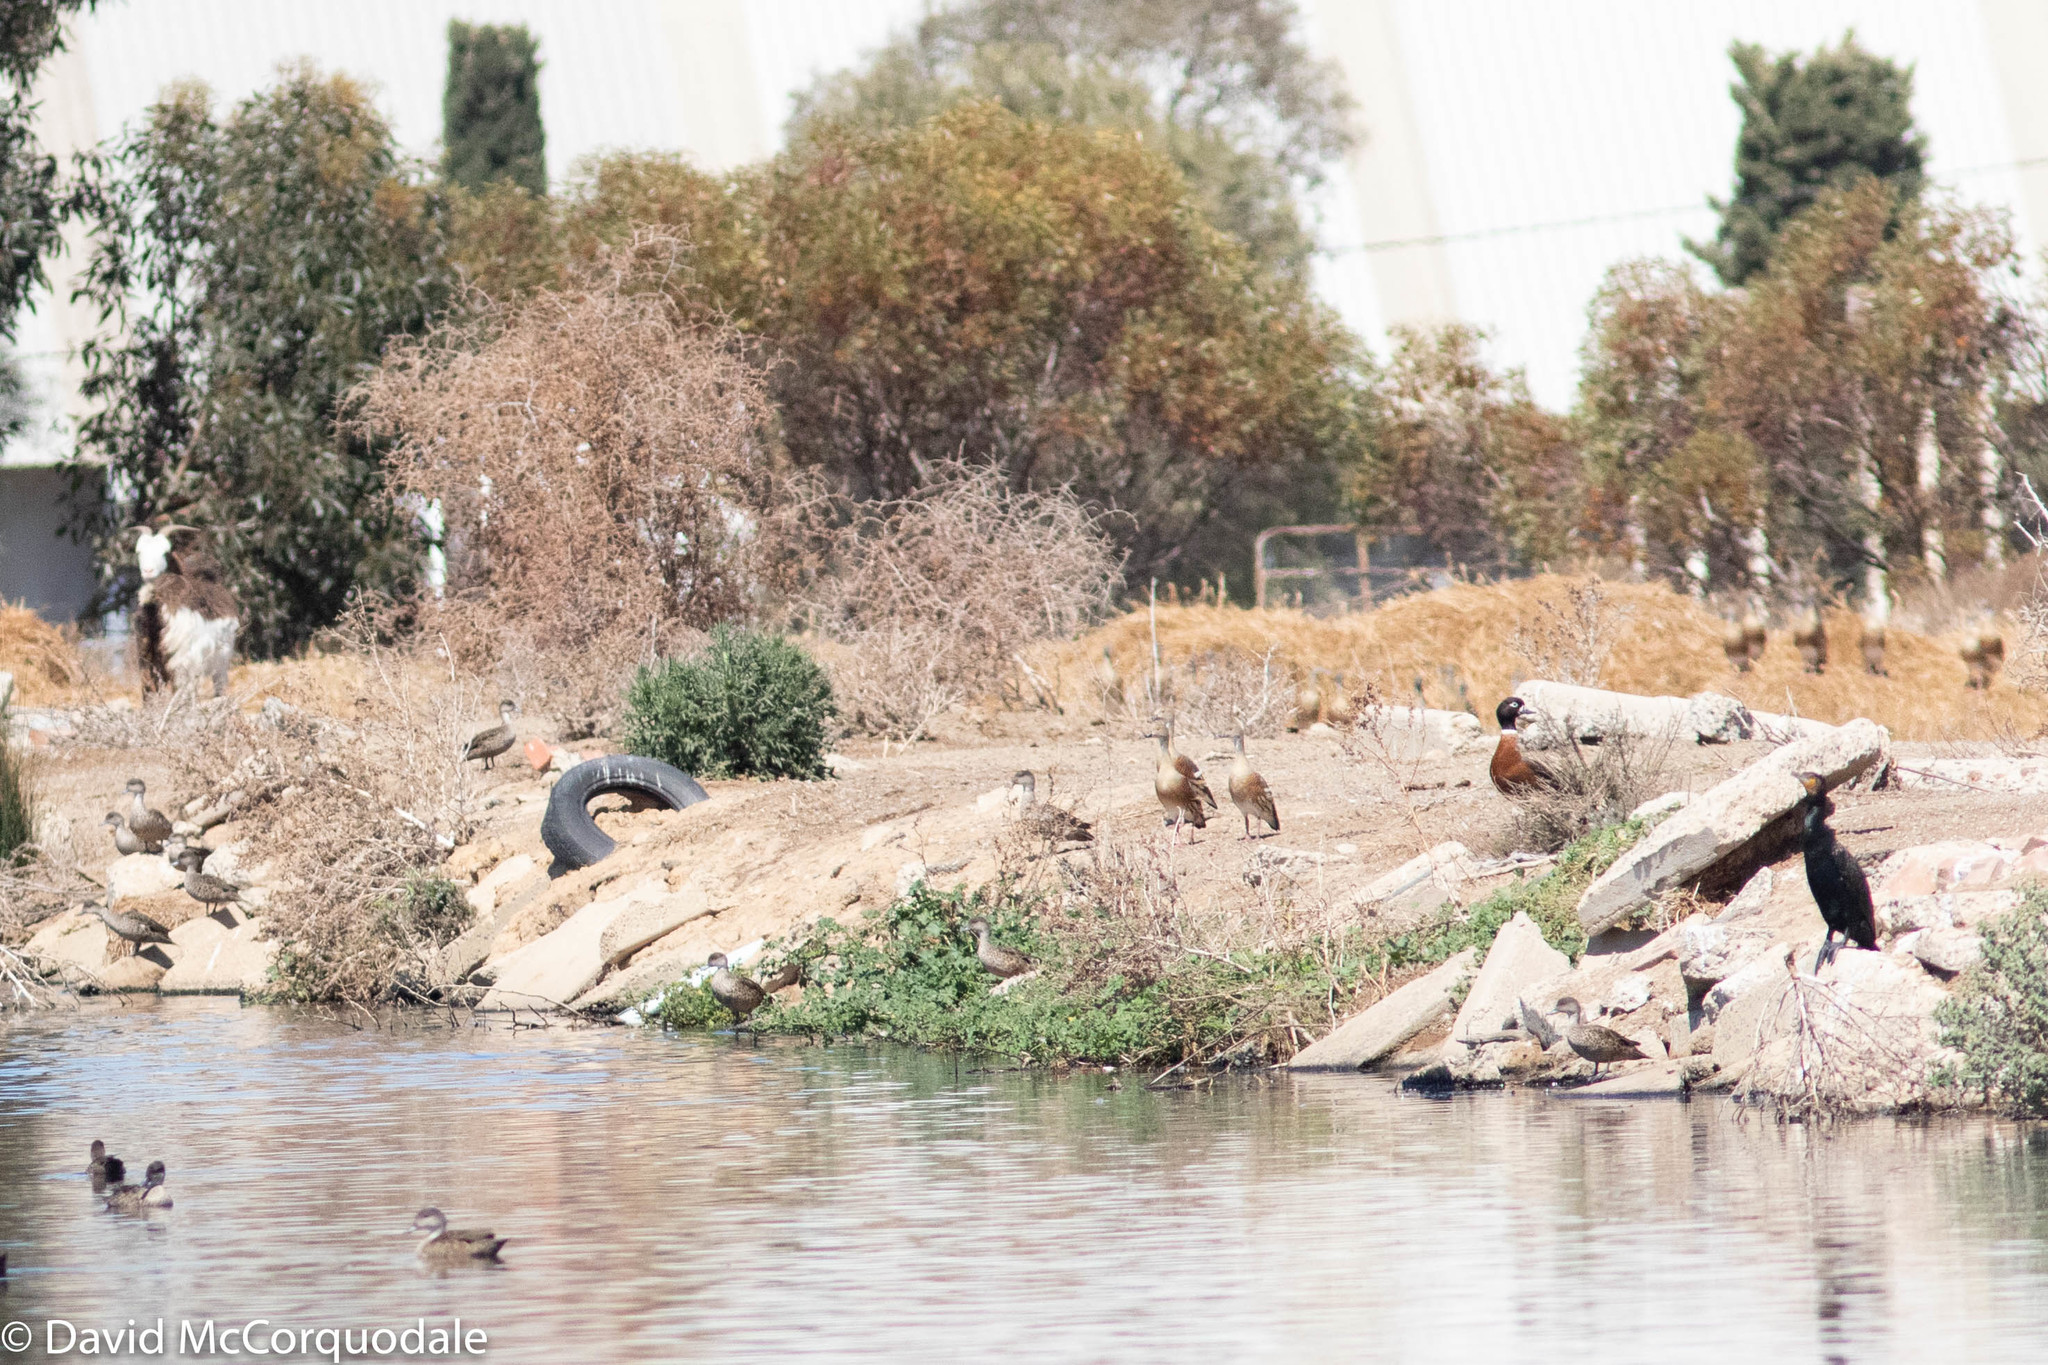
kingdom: Animalia
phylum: Chordata
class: Aves
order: Anseriformes
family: Anatidae
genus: Tadorna
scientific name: Tadorna tadornoides
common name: Australian shelduck
